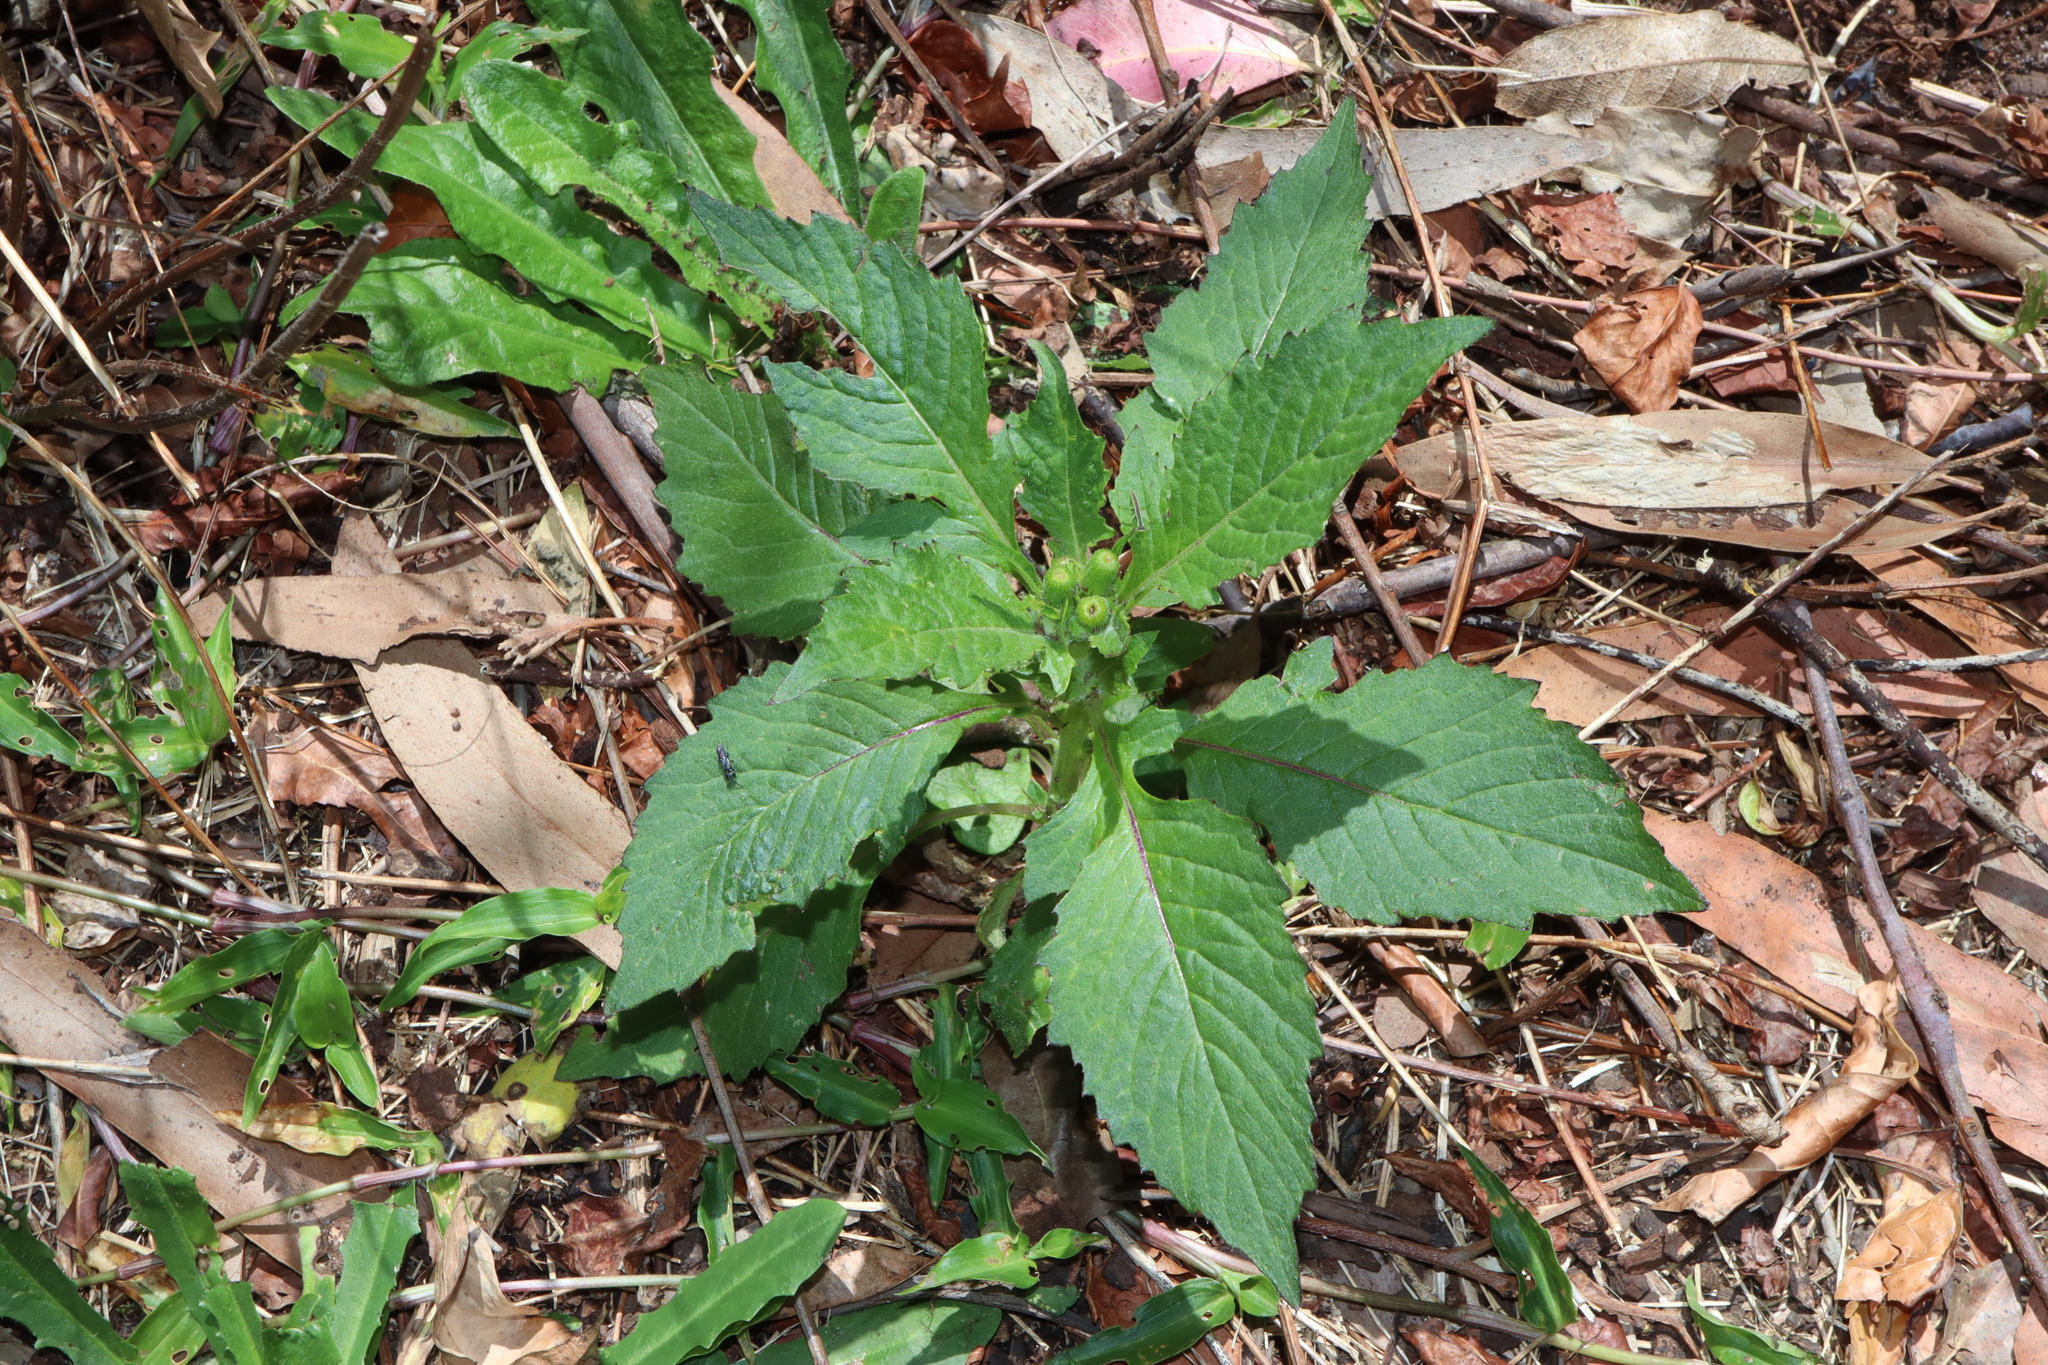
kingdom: Plantae
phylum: Tracheophyta
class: Magnoliopsida
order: Asterales
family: Asteraceae
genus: Crassocephalum
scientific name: Crassocephalum crepidioides
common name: Redflower ragleaf
